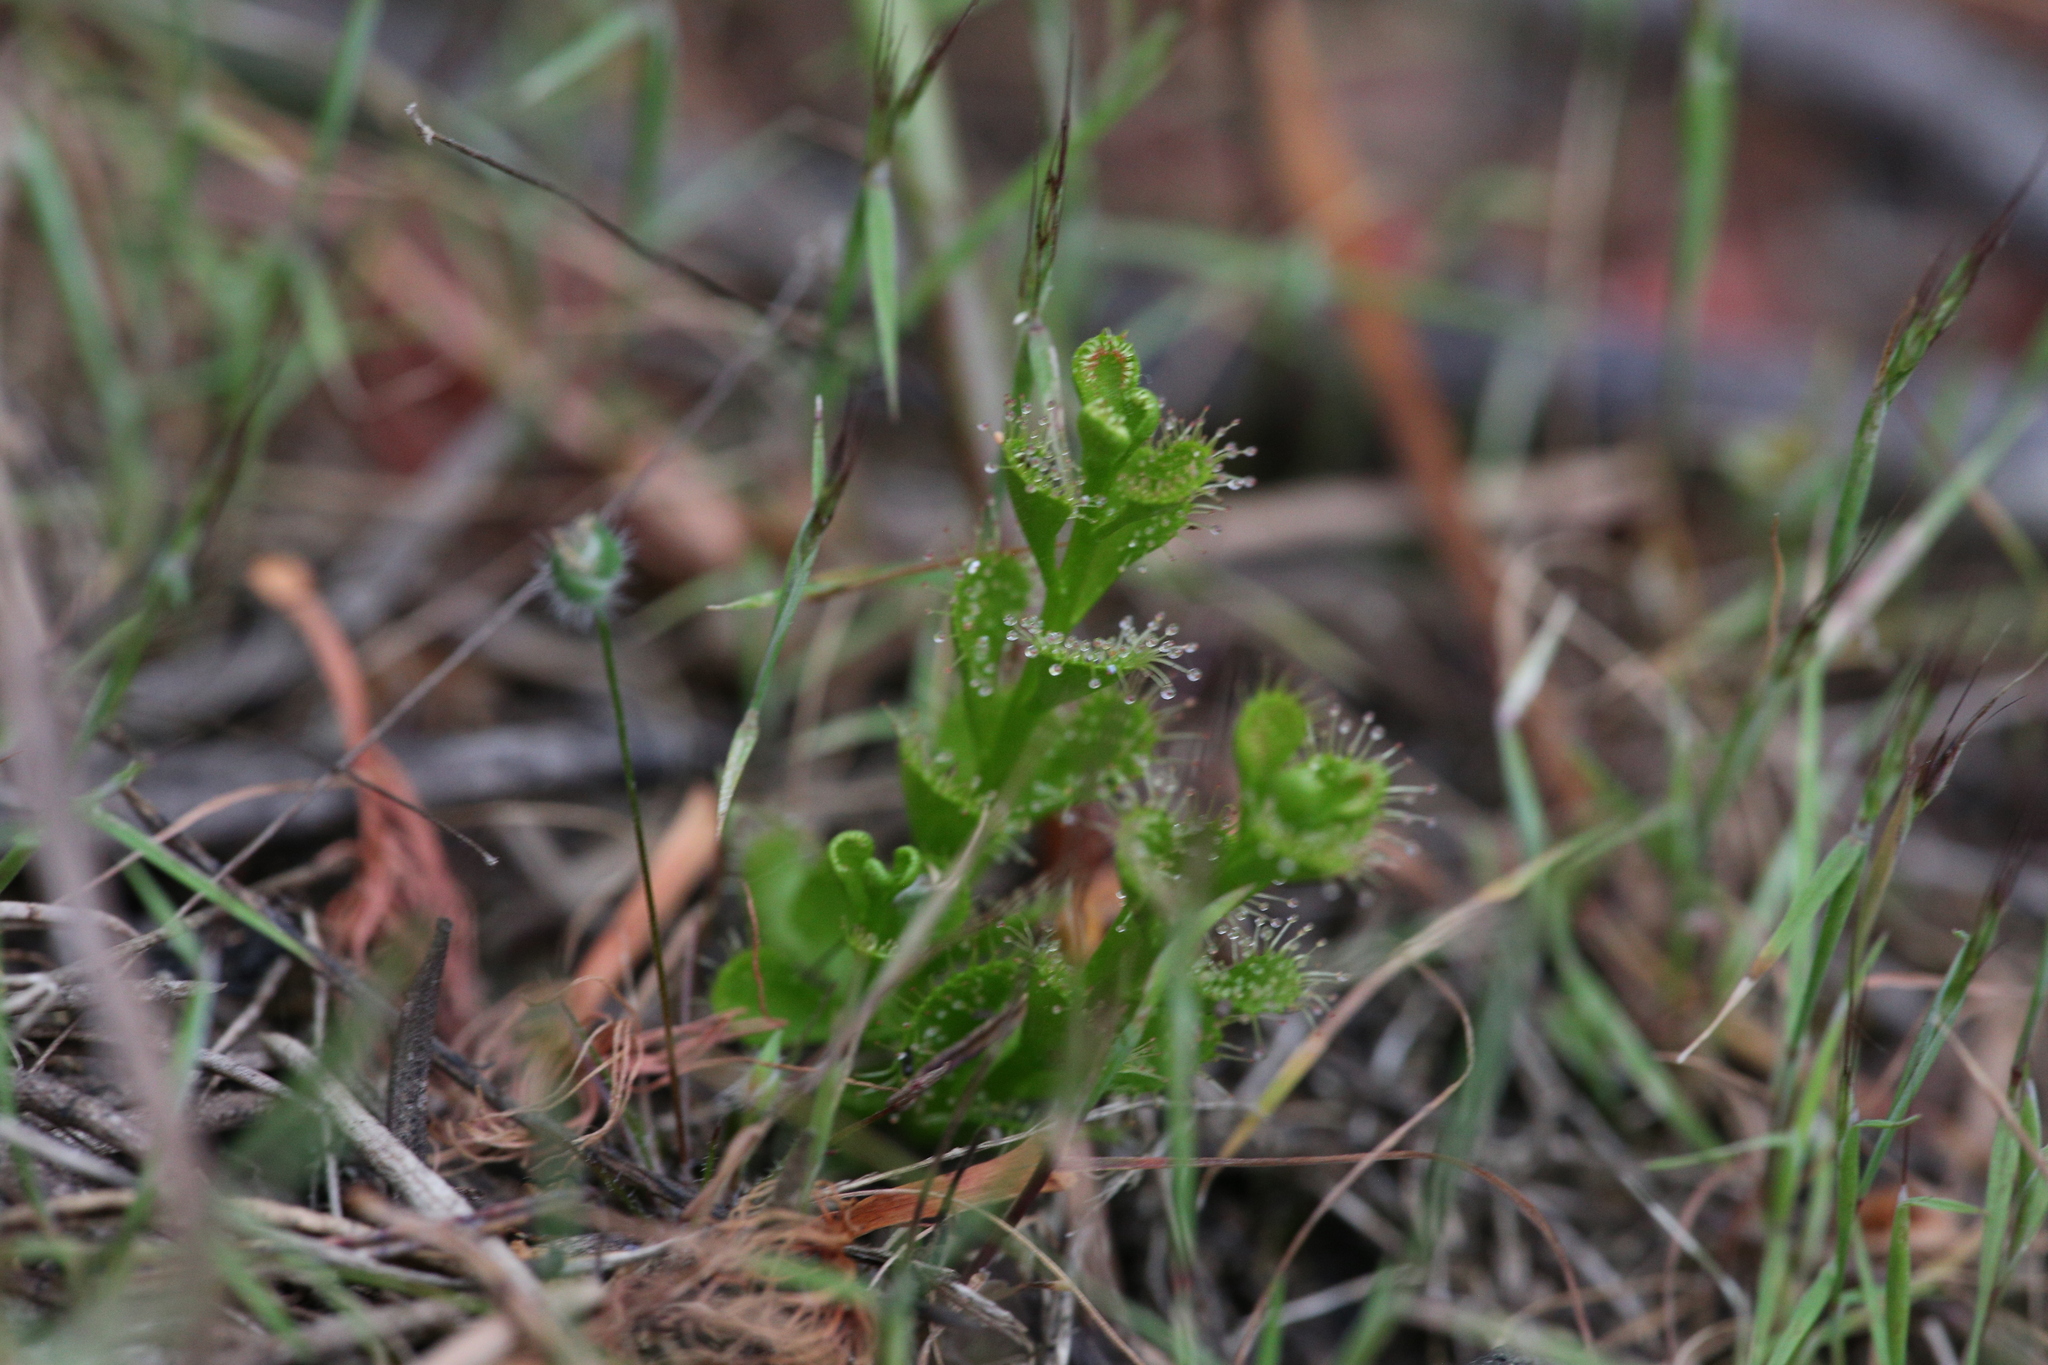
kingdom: Plantae
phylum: Tracheophyta
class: Magnoliopsida
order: Caryophyllales
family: Droseraceae
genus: Drosera
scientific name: Drosera ramellosa
